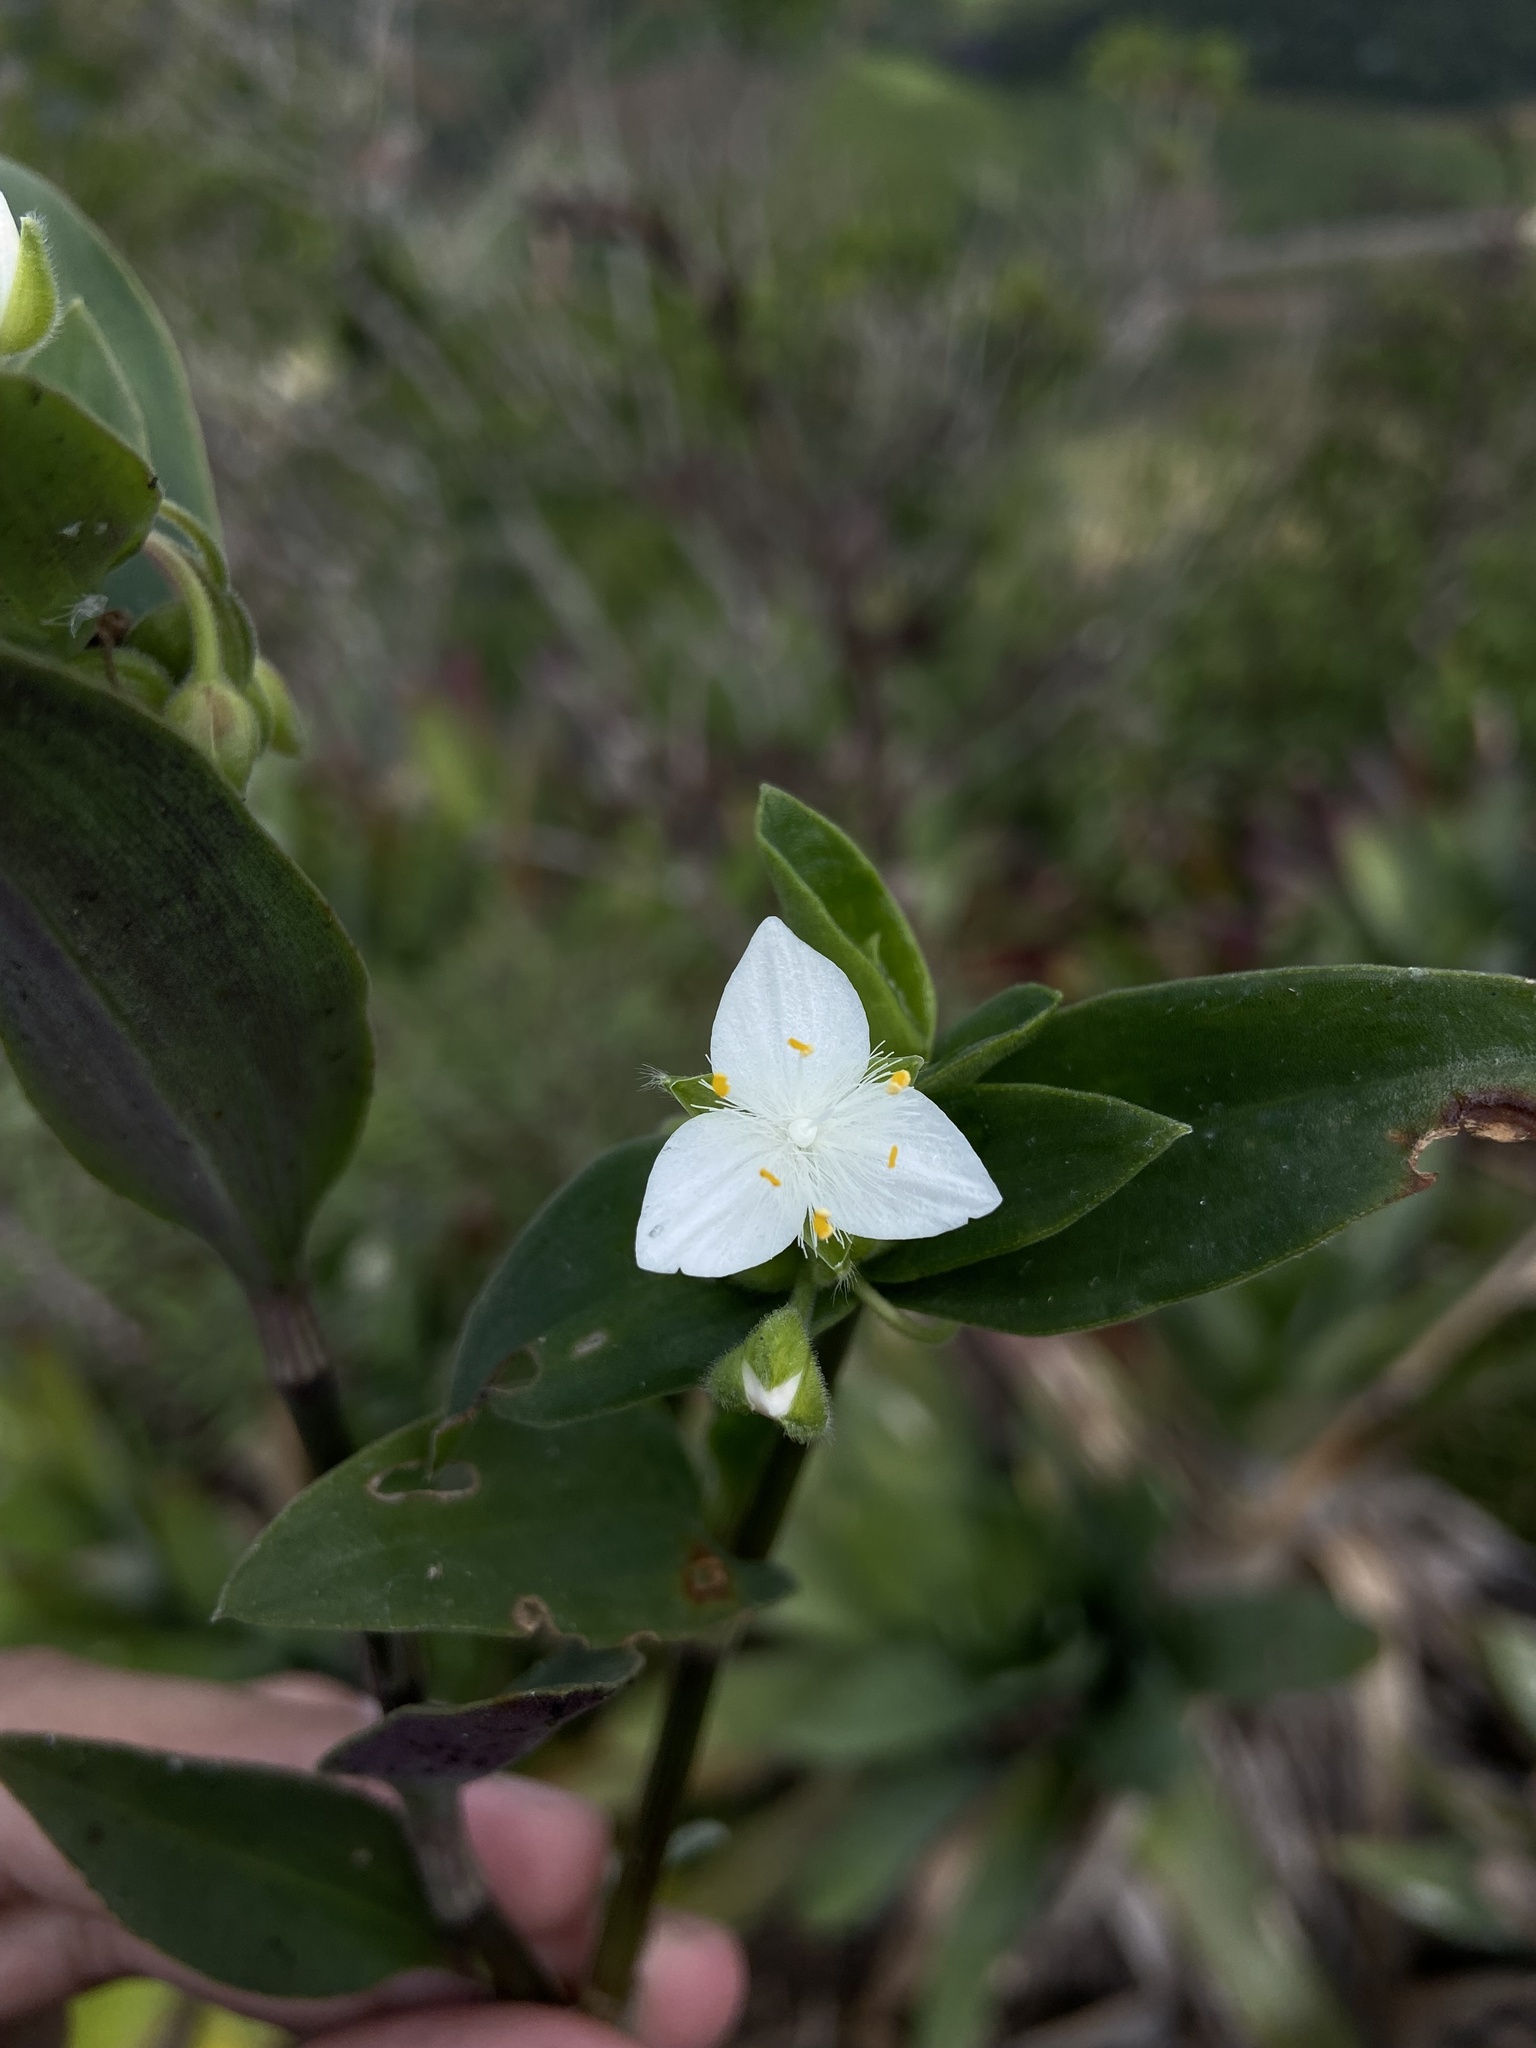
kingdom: Plantae
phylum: Tracheophyta
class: Liliopsida
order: Commelinales
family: Commelinaceae
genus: Tradescantia
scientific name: Tradescantia fluminensis
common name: Wandering-jew
